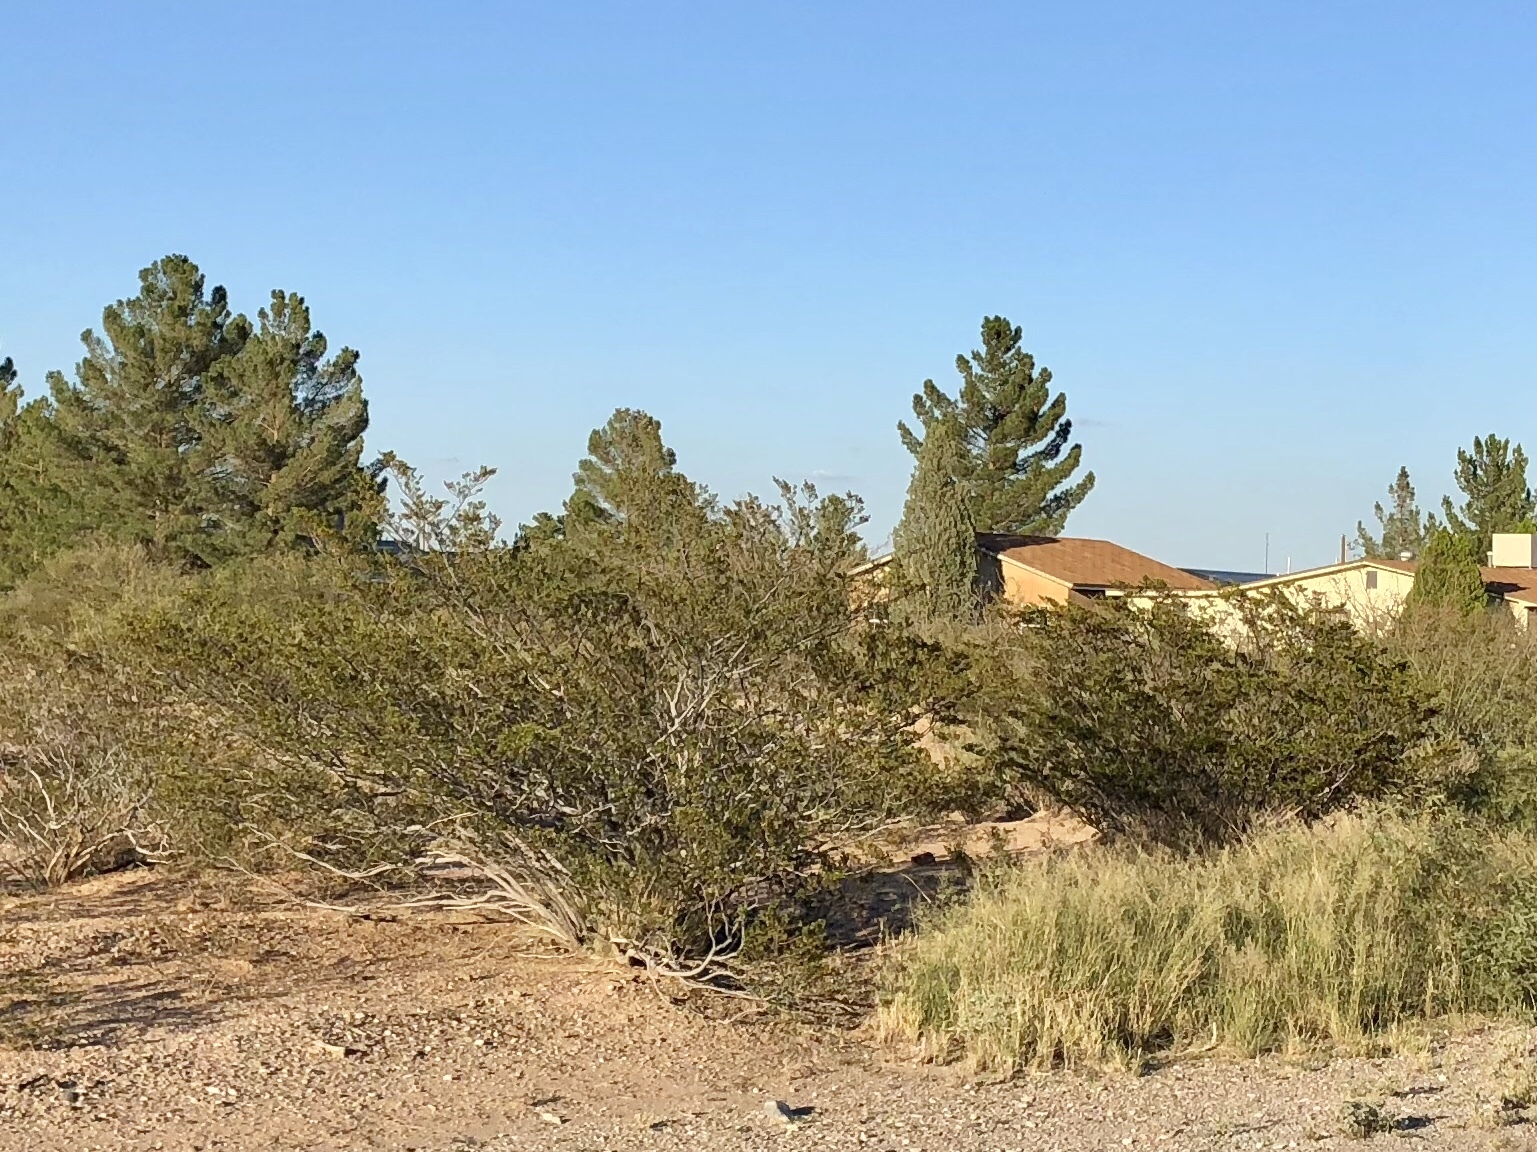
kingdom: Plantae
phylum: Tracheophyta
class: Magnoliopsida
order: Zygophyllales
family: Zygophyllaceae
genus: Larrea
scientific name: Larrea tridentata
